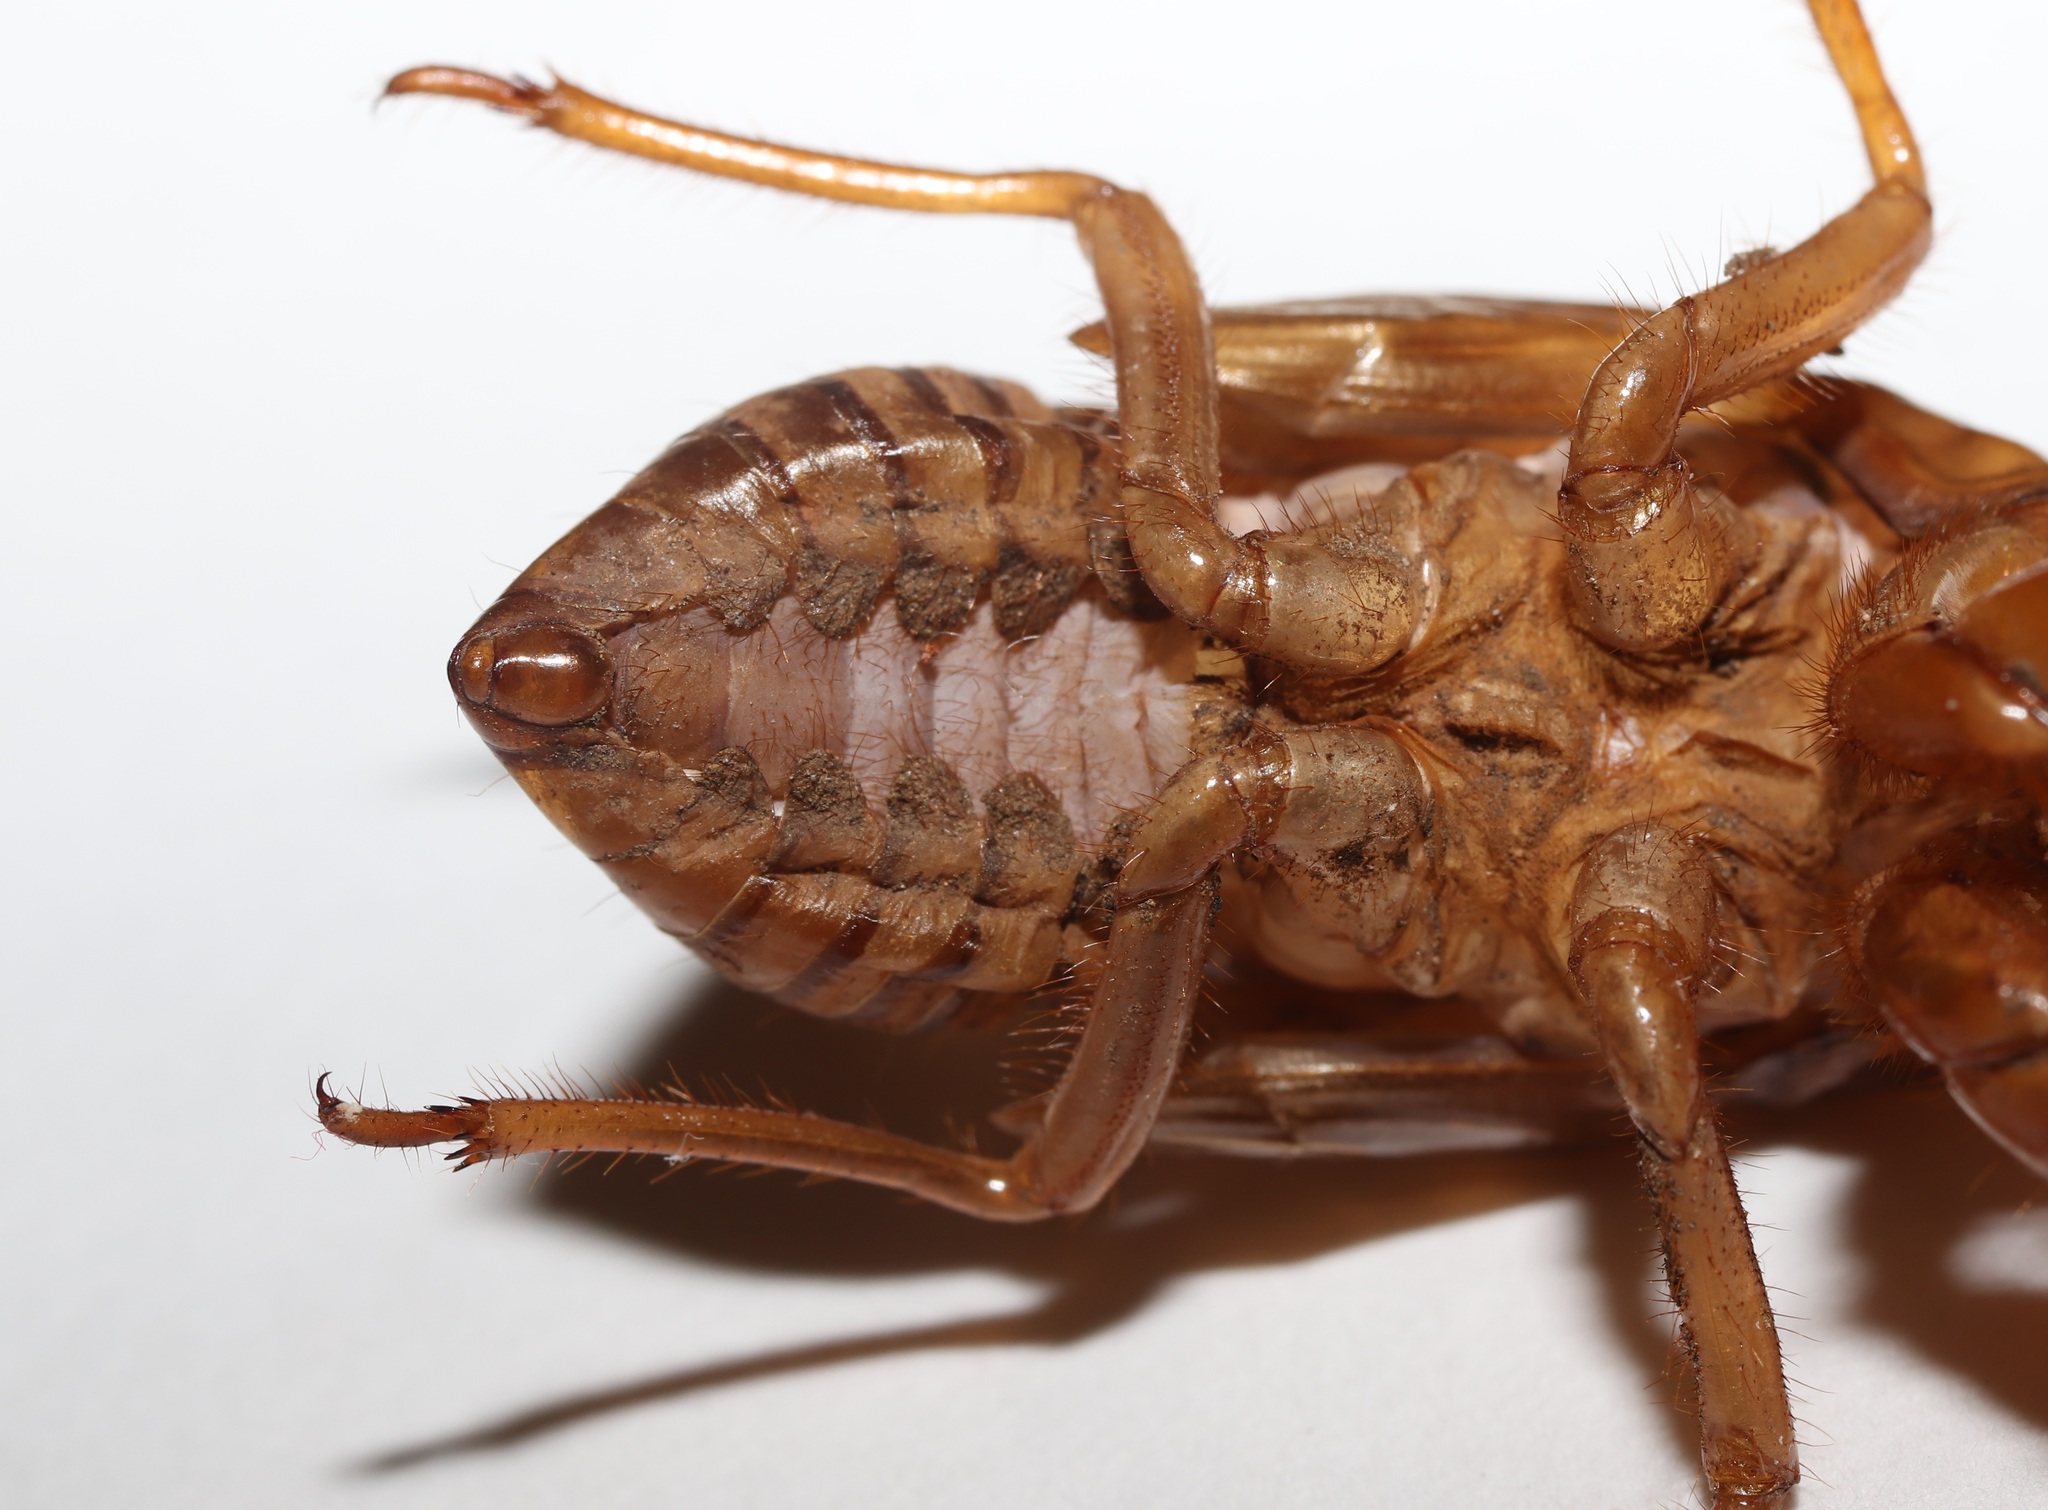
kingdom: Animalia
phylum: Arthropoda
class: Insecta
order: Hemiptera
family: Cicadidae
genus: Hyalessa
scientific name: Hyalessa maculaticollis
